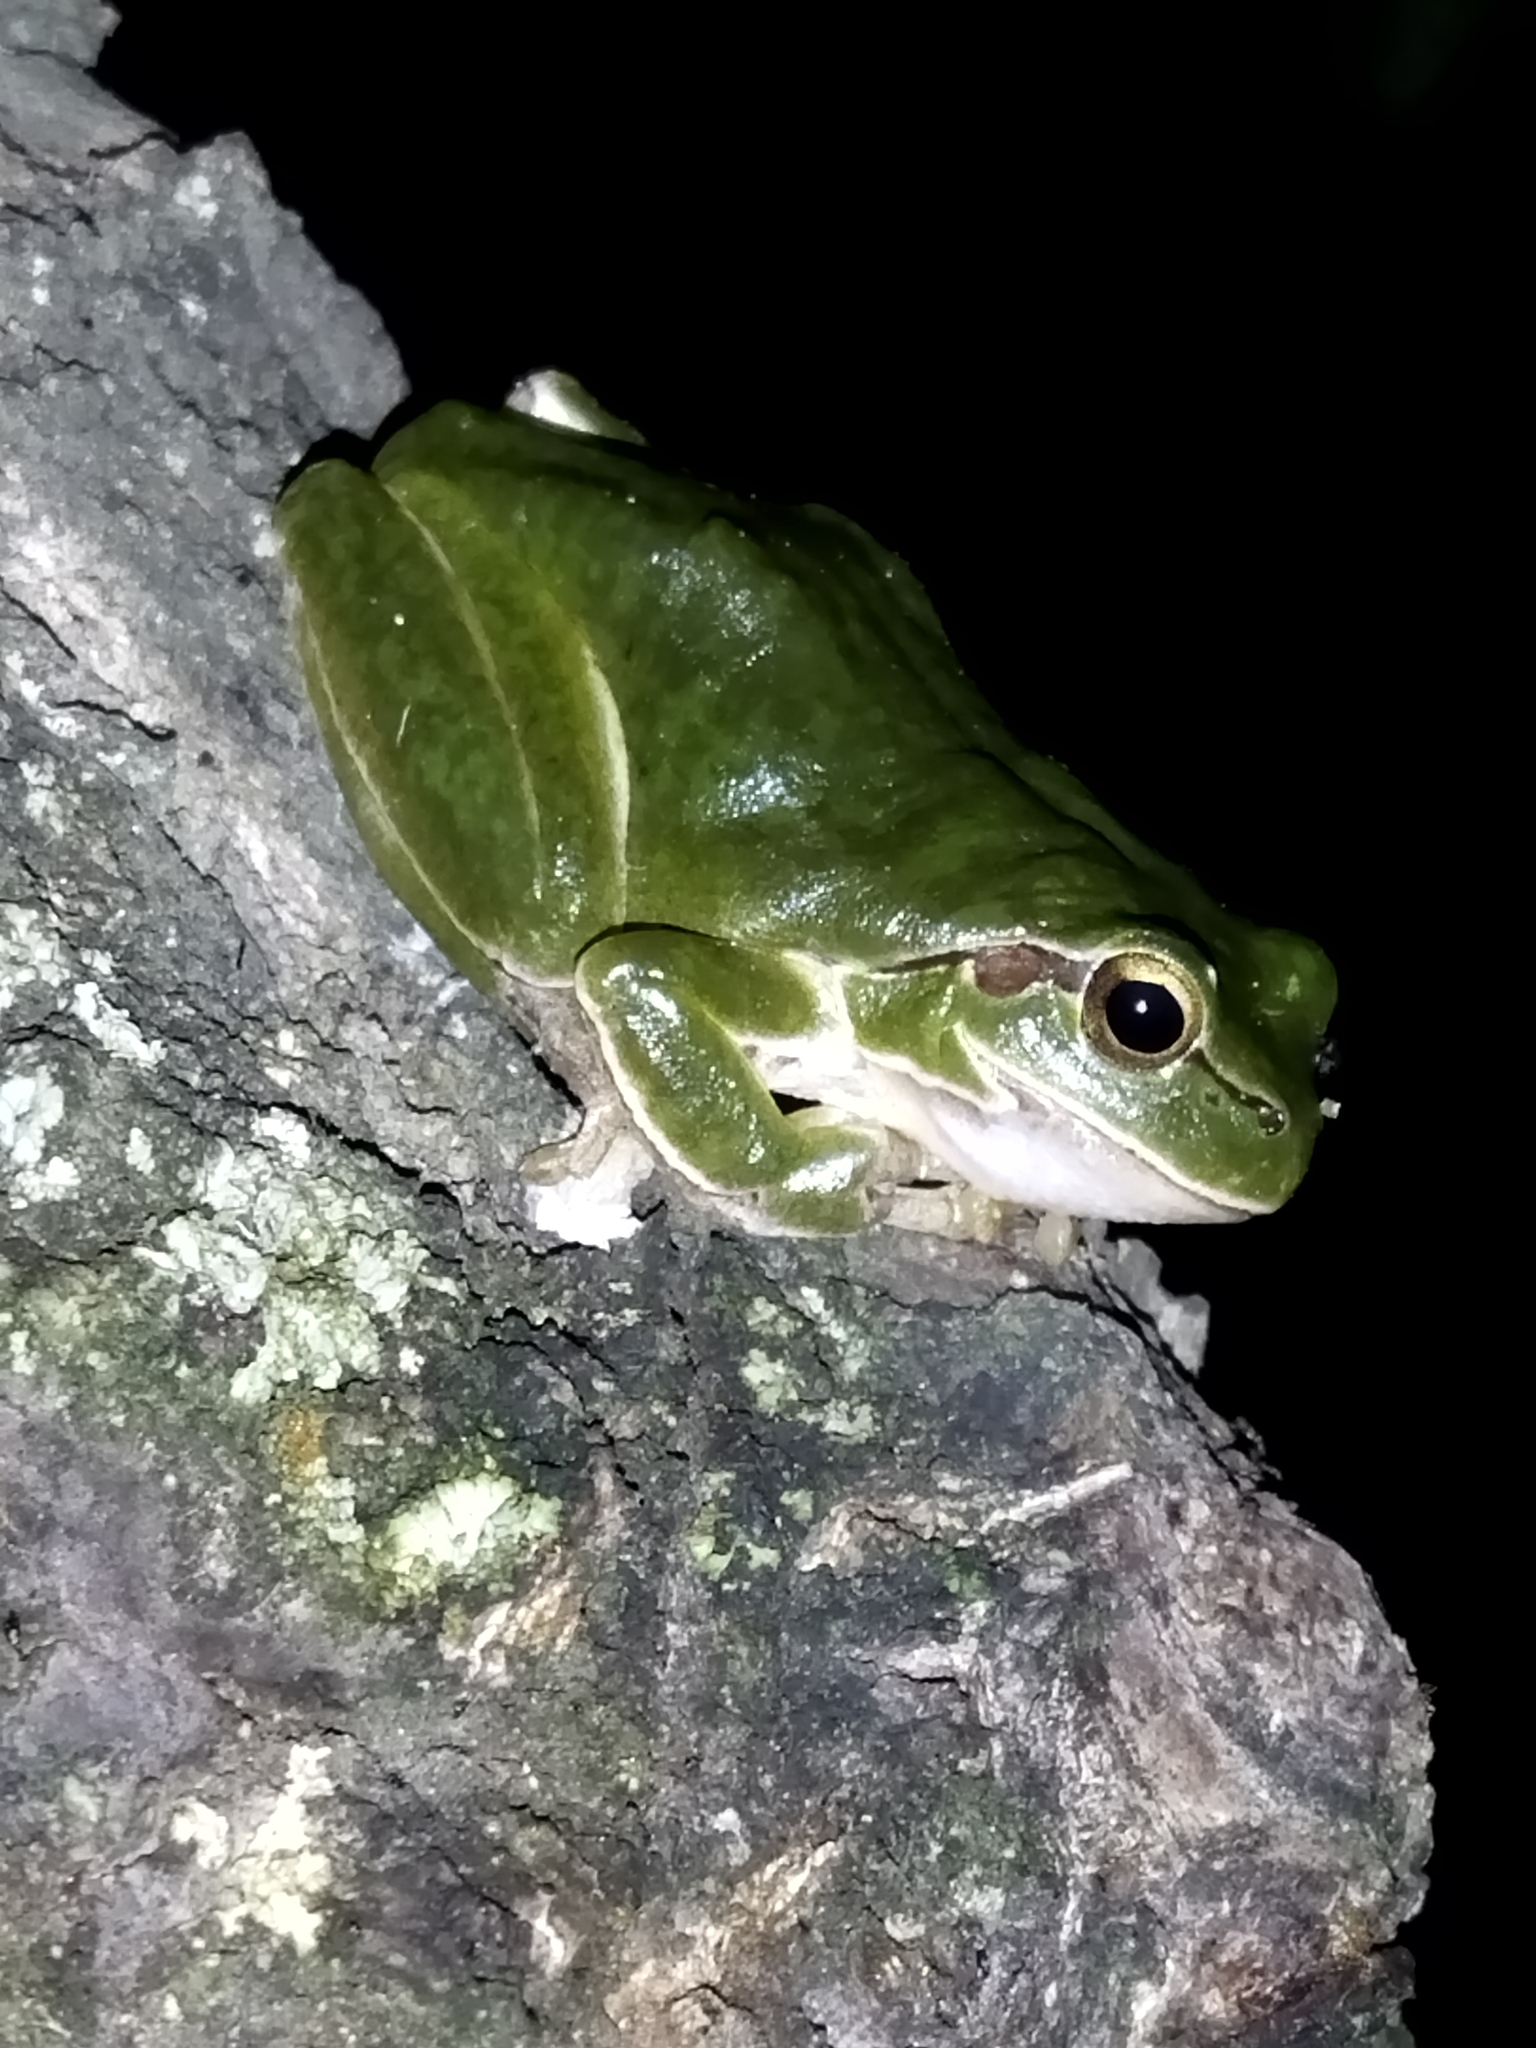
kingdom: Animalia
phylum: Chordata
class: Amphibia
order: Anura
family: Hylidae
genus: Hyla
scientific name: Hyla orientalis
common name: Caucasian treefrog
